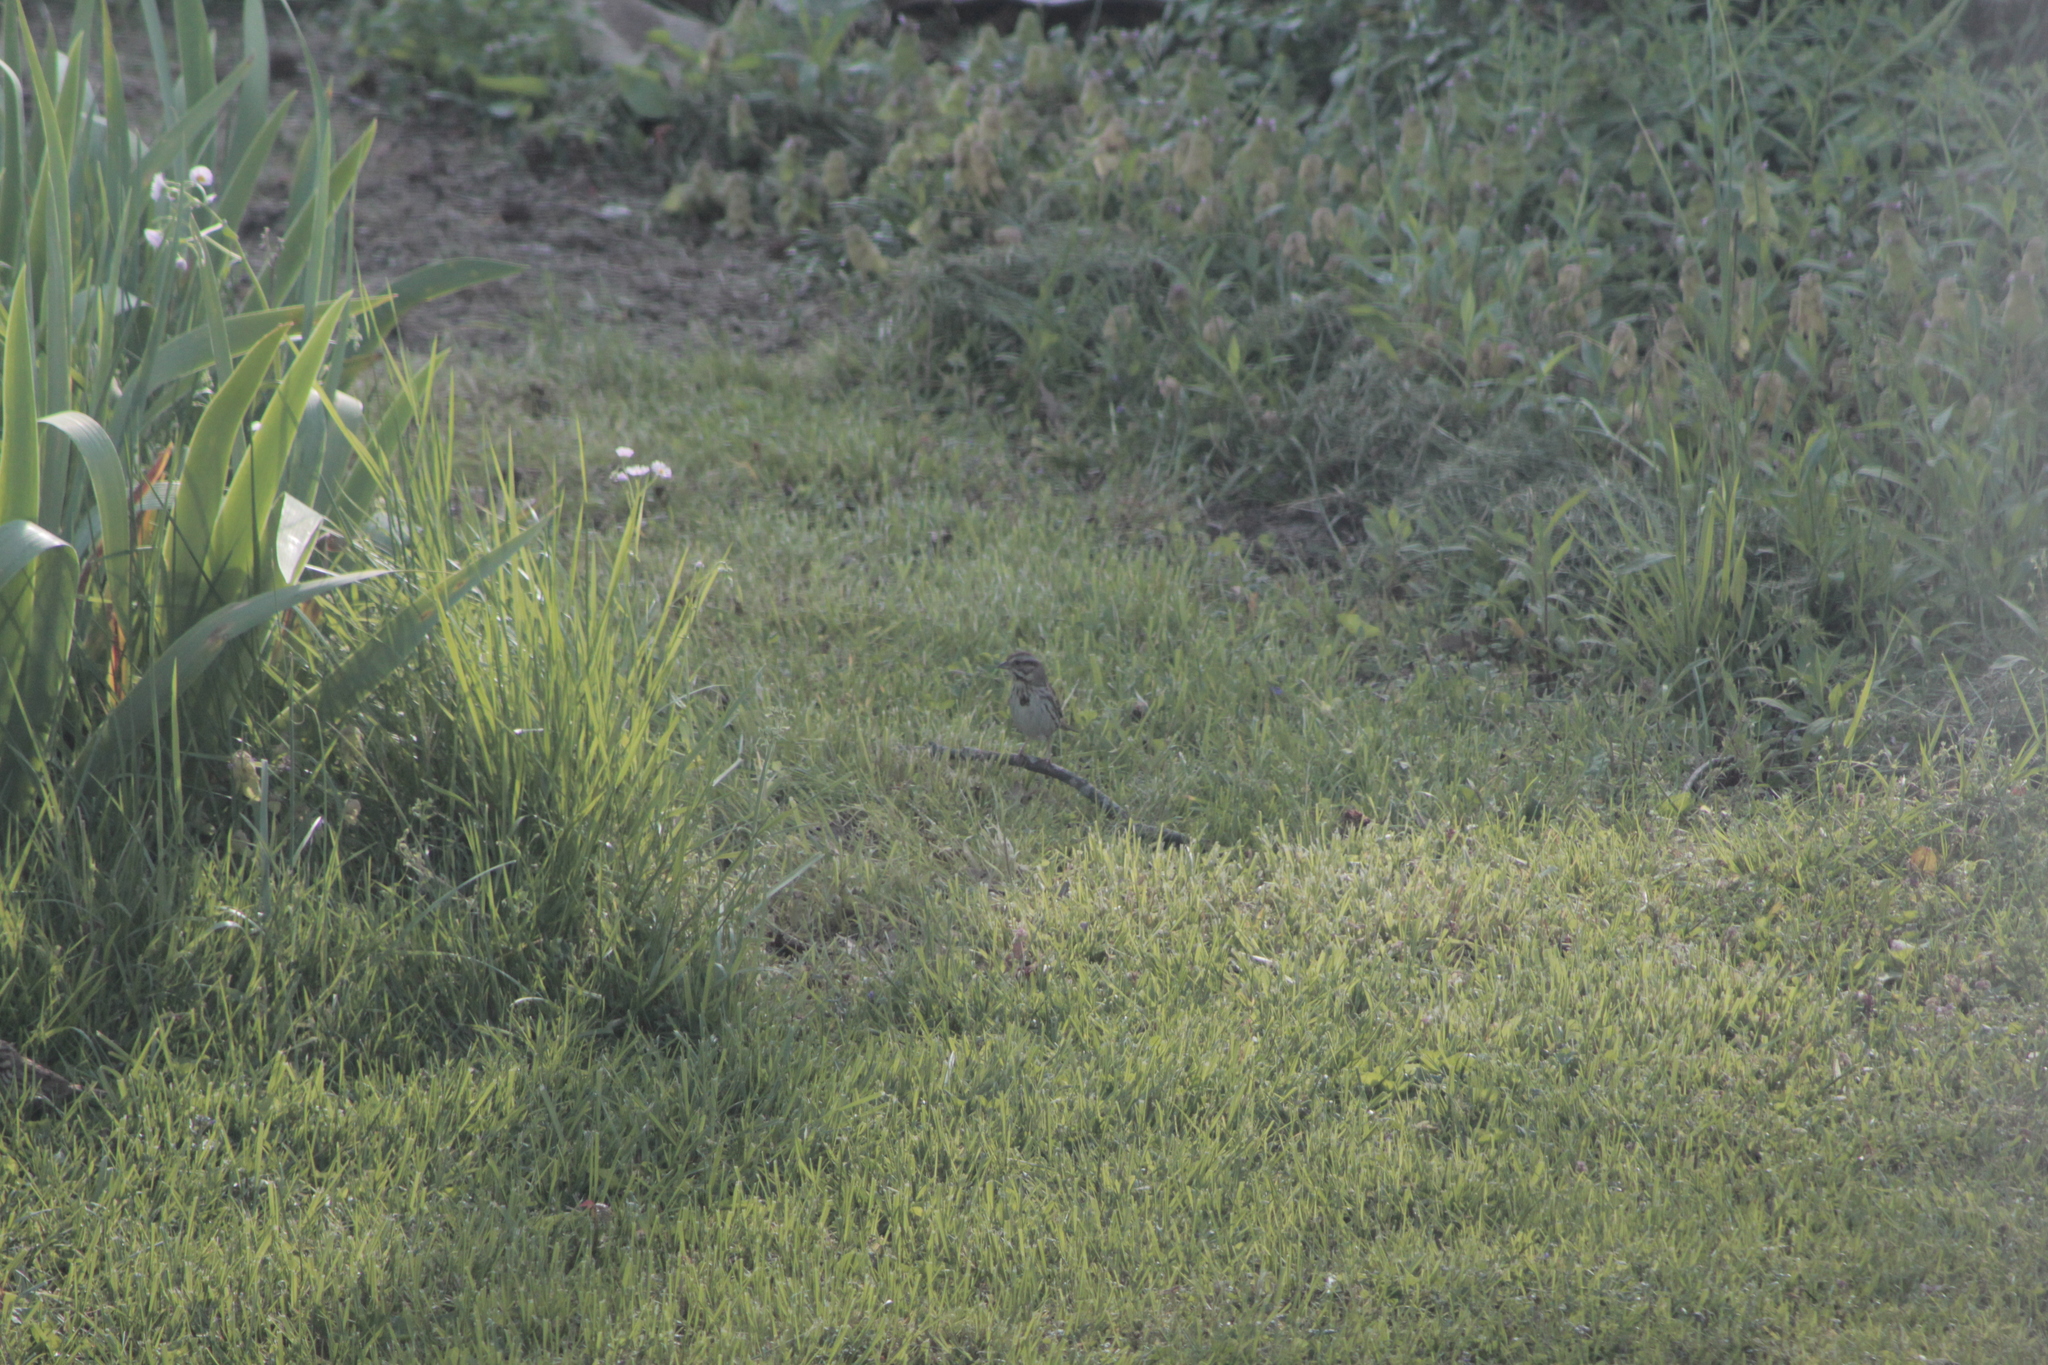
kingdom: Animalia
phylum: Chordata
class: Aves
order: Passeriformes
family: Passerellidae
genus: Melospiza
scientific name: Melospiza melodia
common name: Song sparrow
